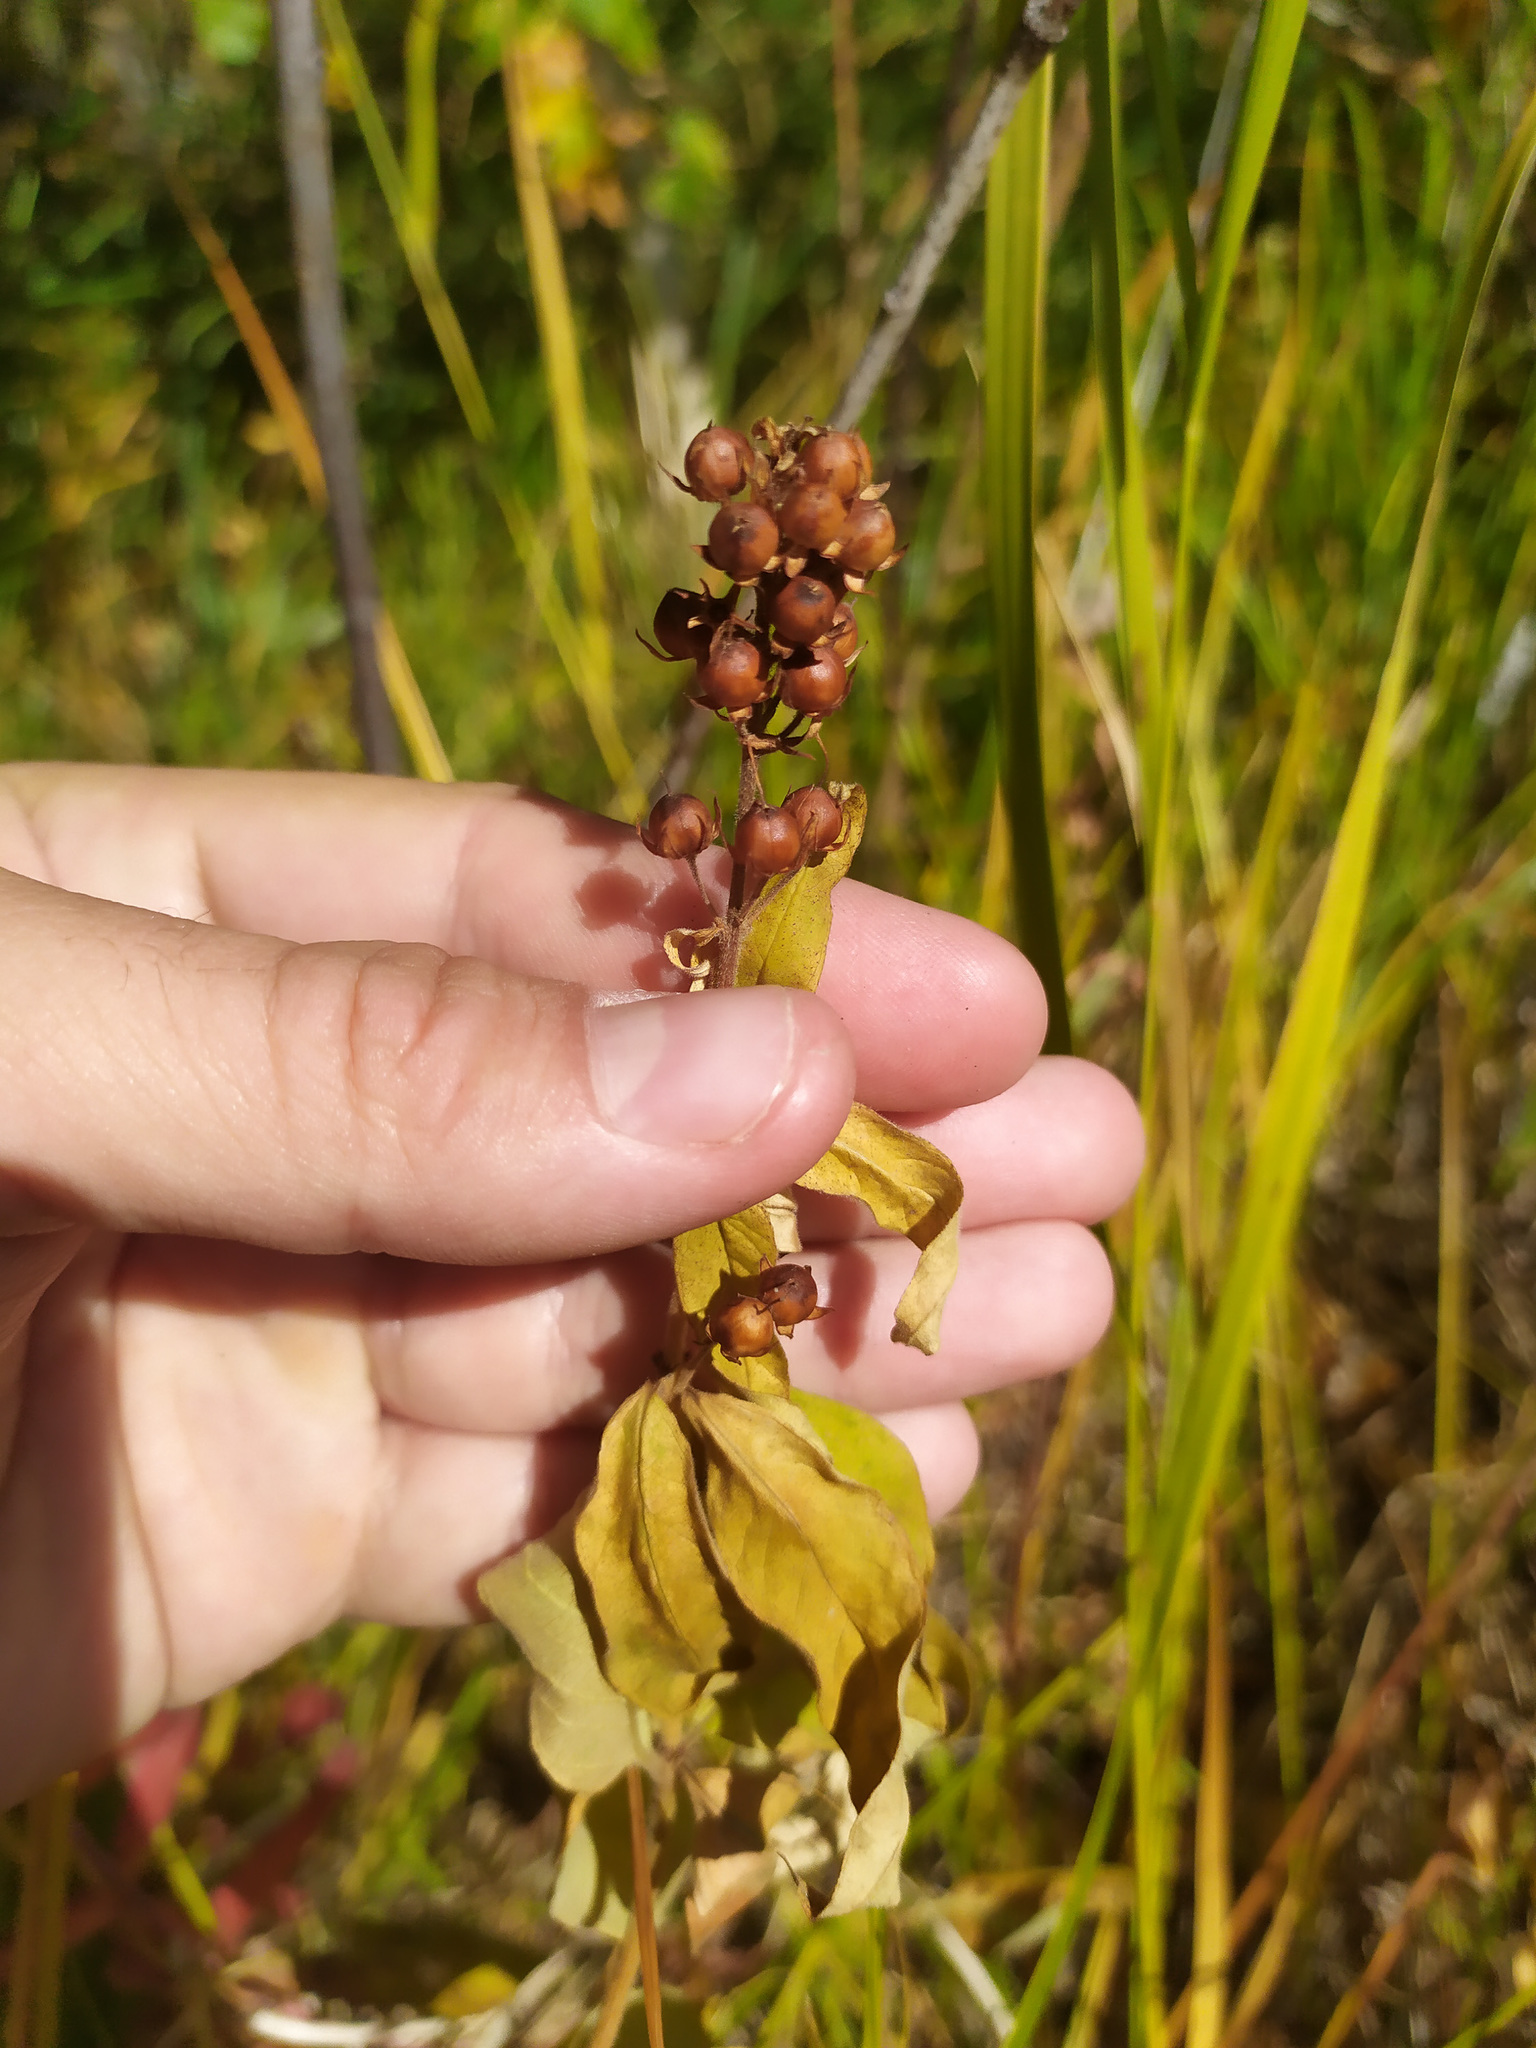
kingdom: Plantae
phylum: Tracheophyta
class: Magnoliopsida
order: Ericales
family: Primulaceae
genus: Lysimachia
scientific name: Lysimachia vulgaris
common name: Yellow loosestrife
